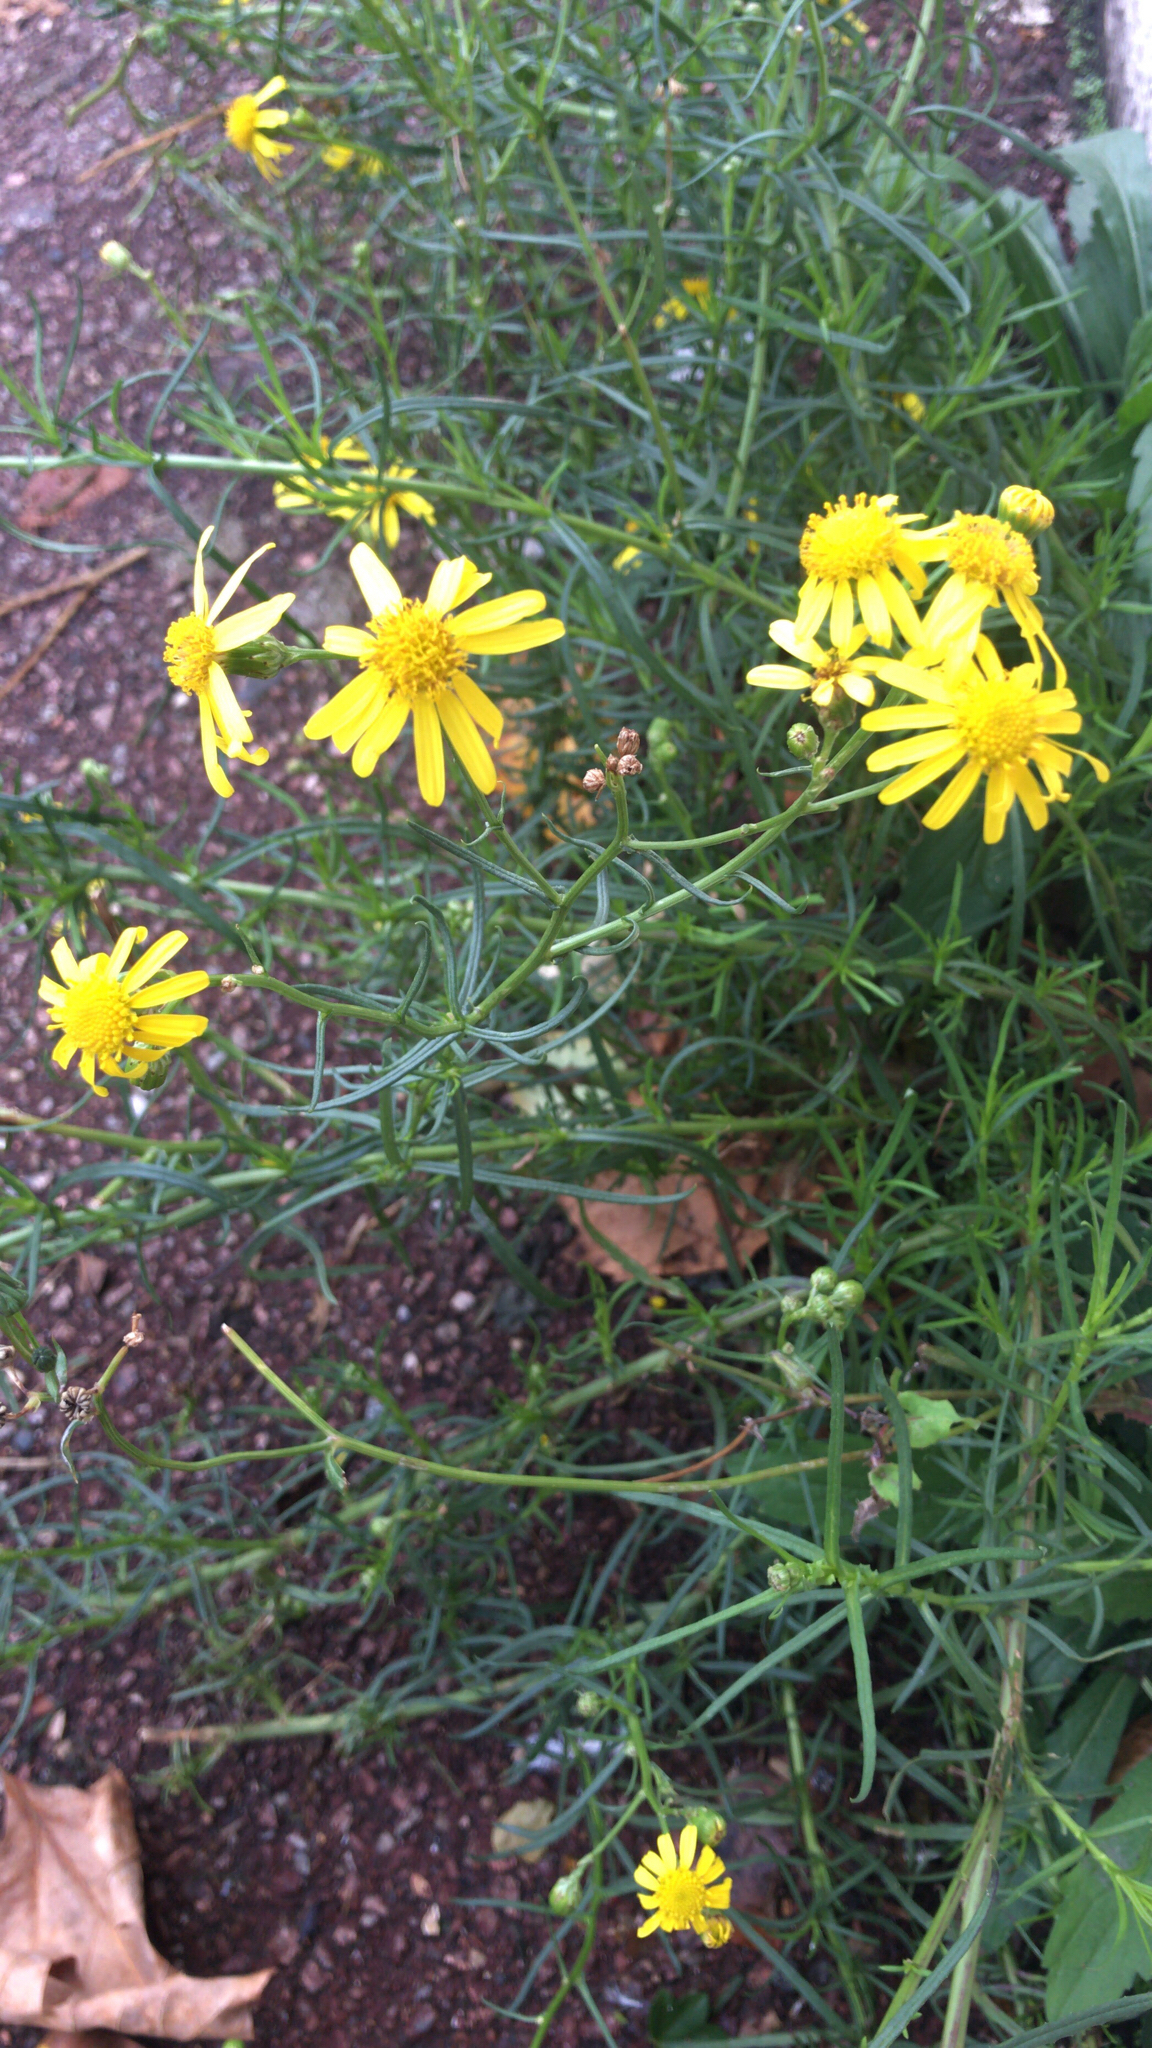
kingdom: Plantae
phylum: Tracheophyta
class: Magnoliopsida
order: Asterales
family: Asteraceae
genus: Senecio
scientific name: Senecio inaequidens
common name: Narrow-leaved ragwort
